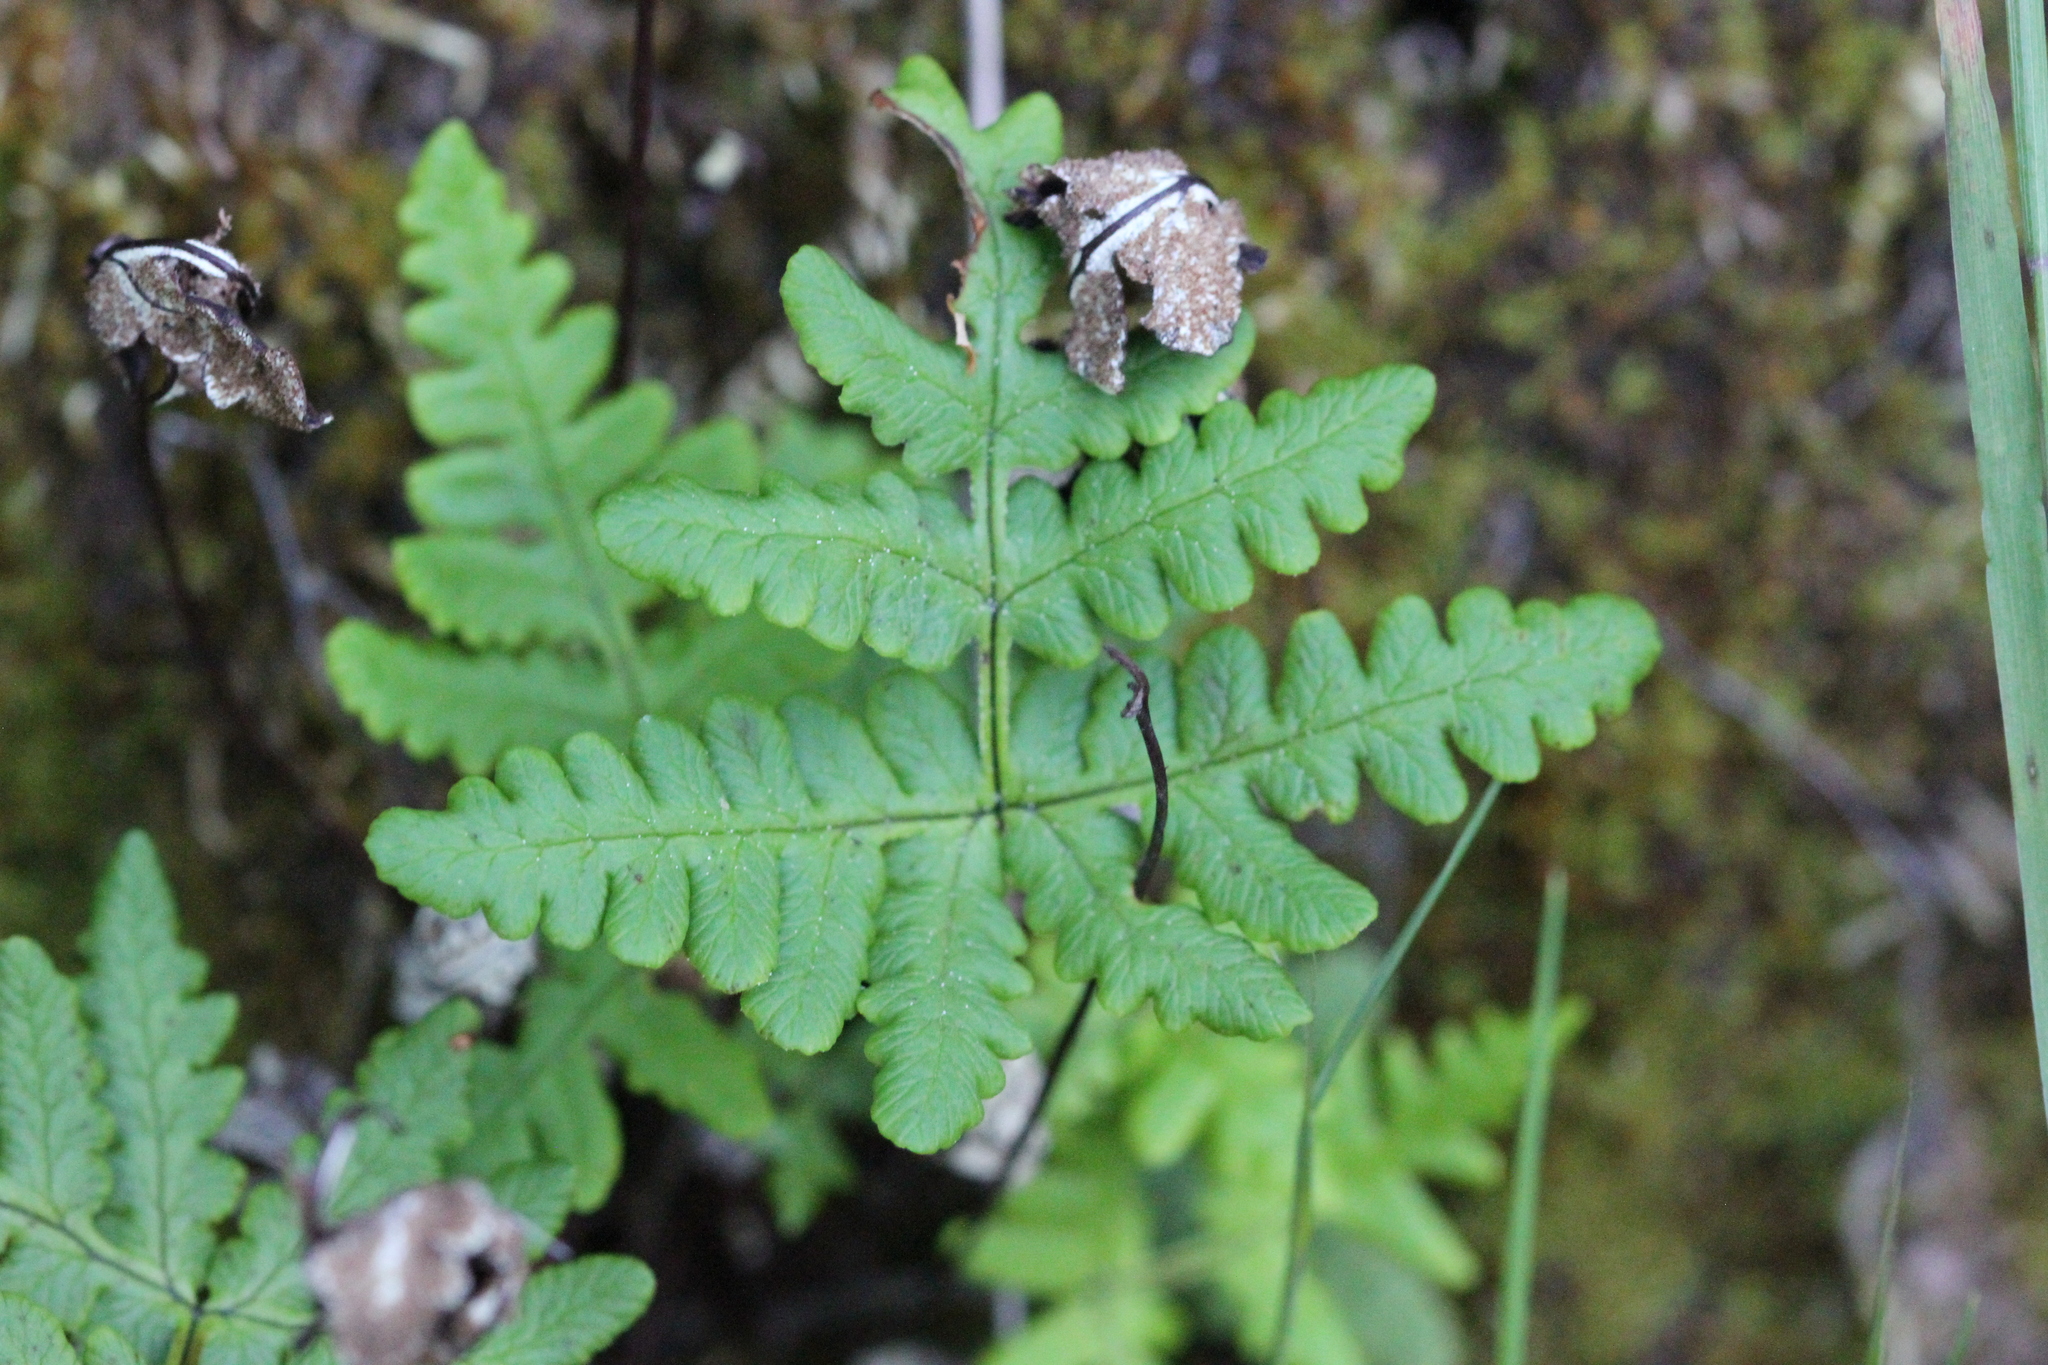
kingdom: Plantae
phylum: Tracheophyta
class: Polypodiopsida
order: Polypodiales
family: Pteridaceae
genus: Pentagramma
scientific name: Pentagramma triangularis
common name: Gold fern
